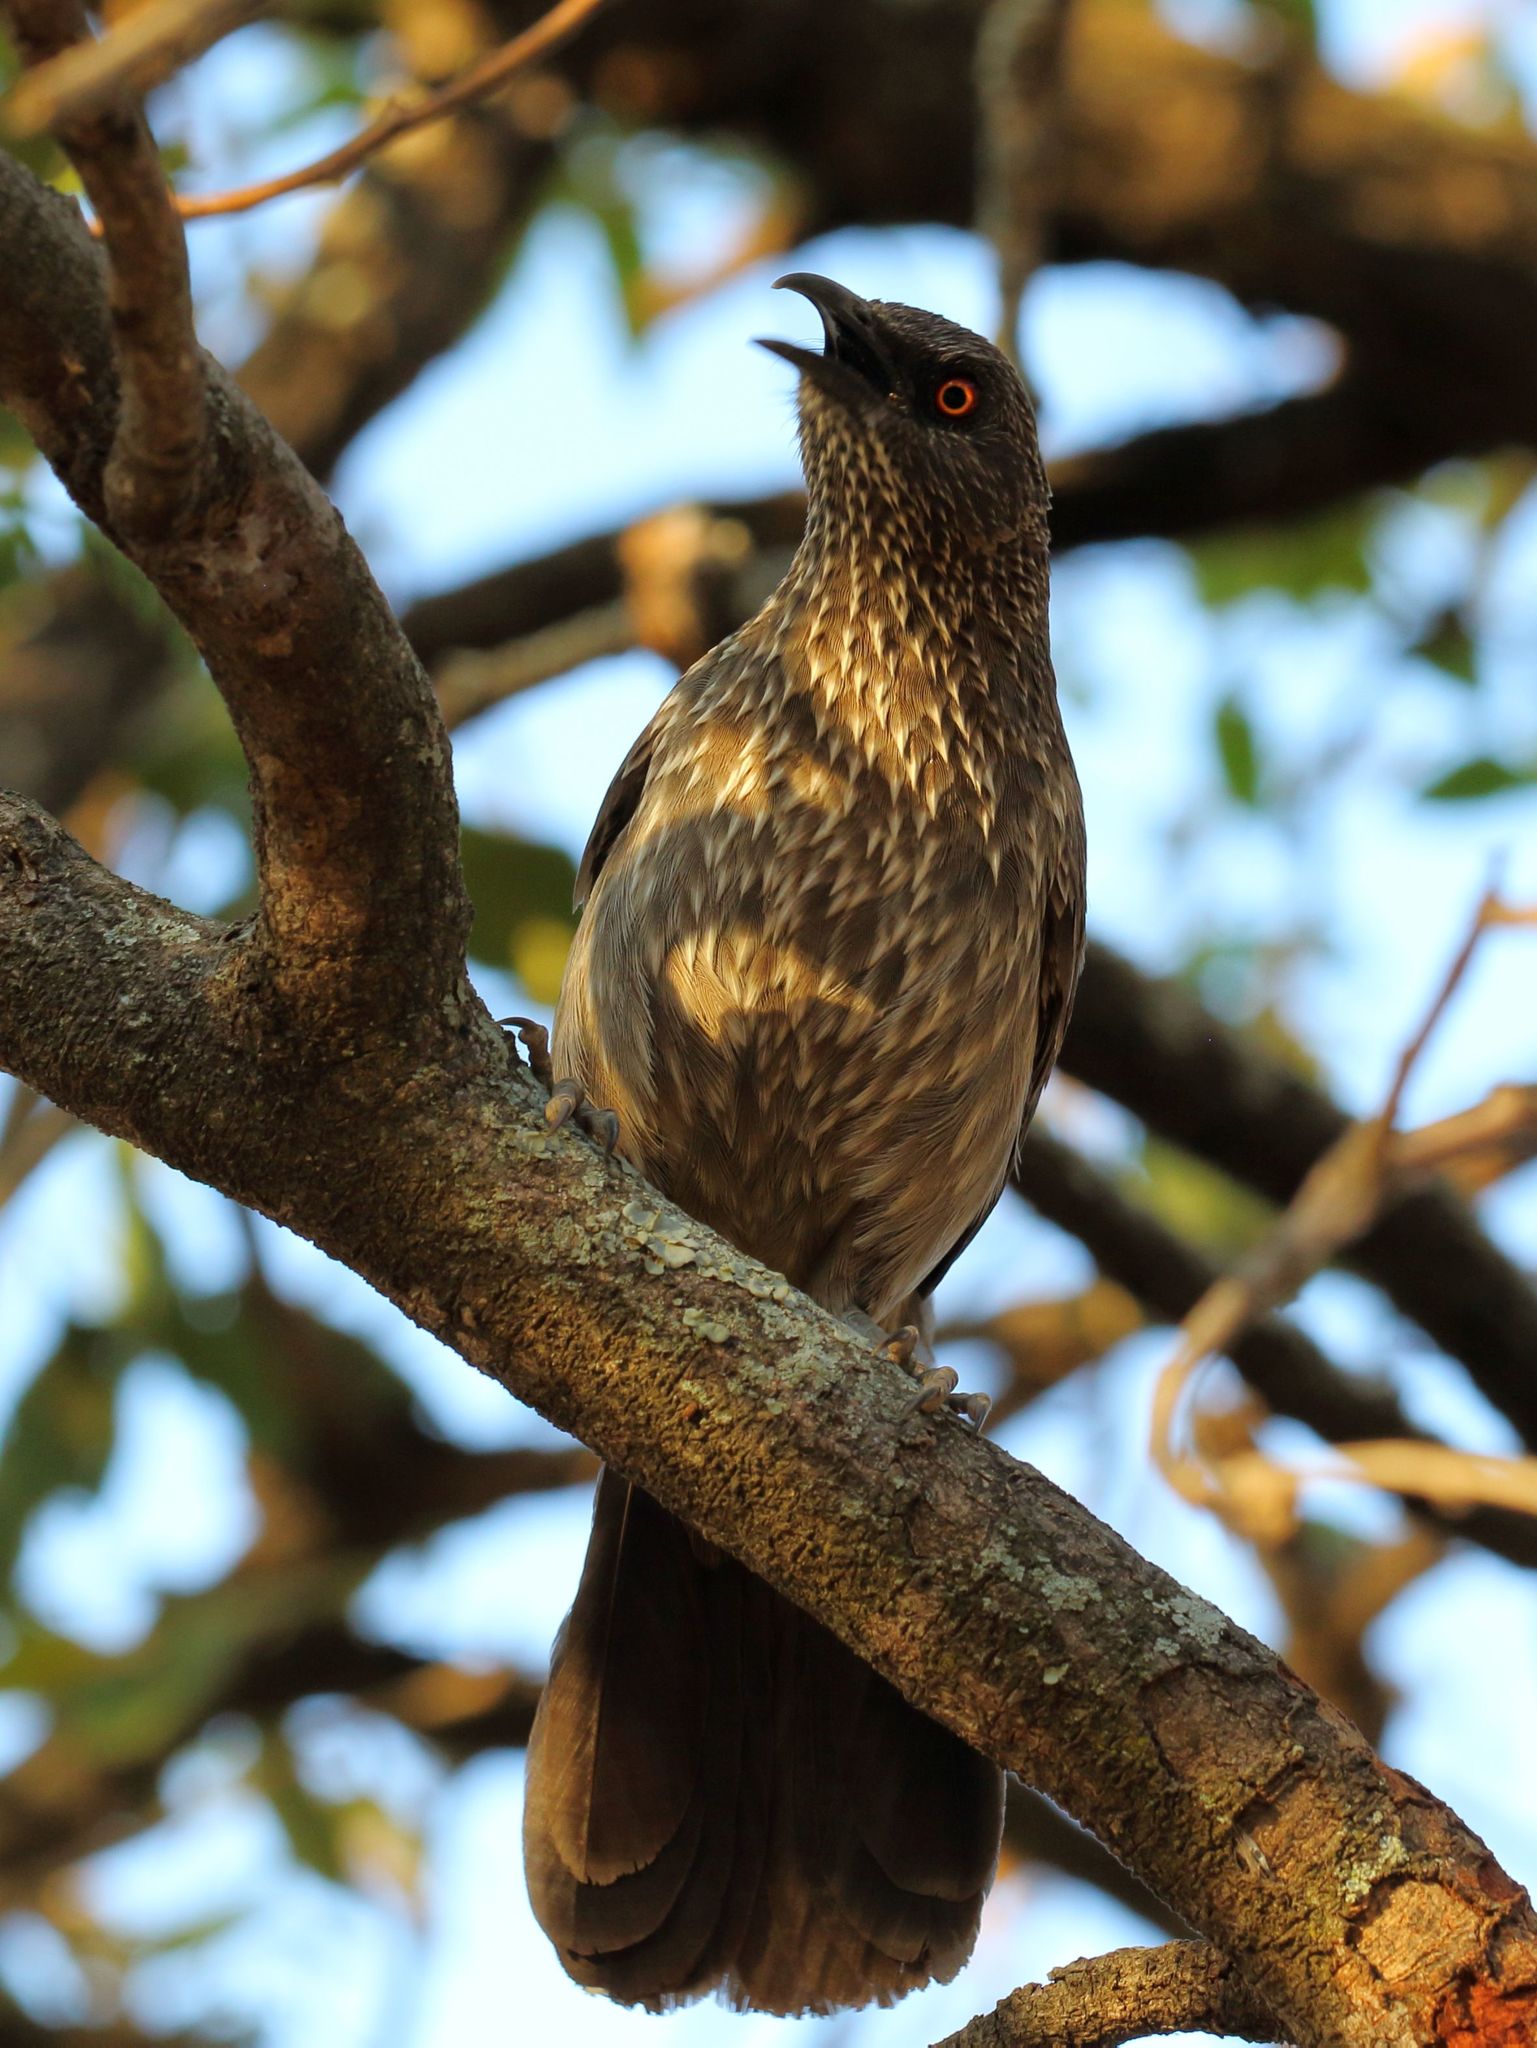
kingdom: Animalia
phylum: Chordata
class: Aves
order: Passeriformes
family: Leiothrichidae
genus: Turdoides
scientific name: Turdoides jardineii
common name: Arrow-marked babbler
